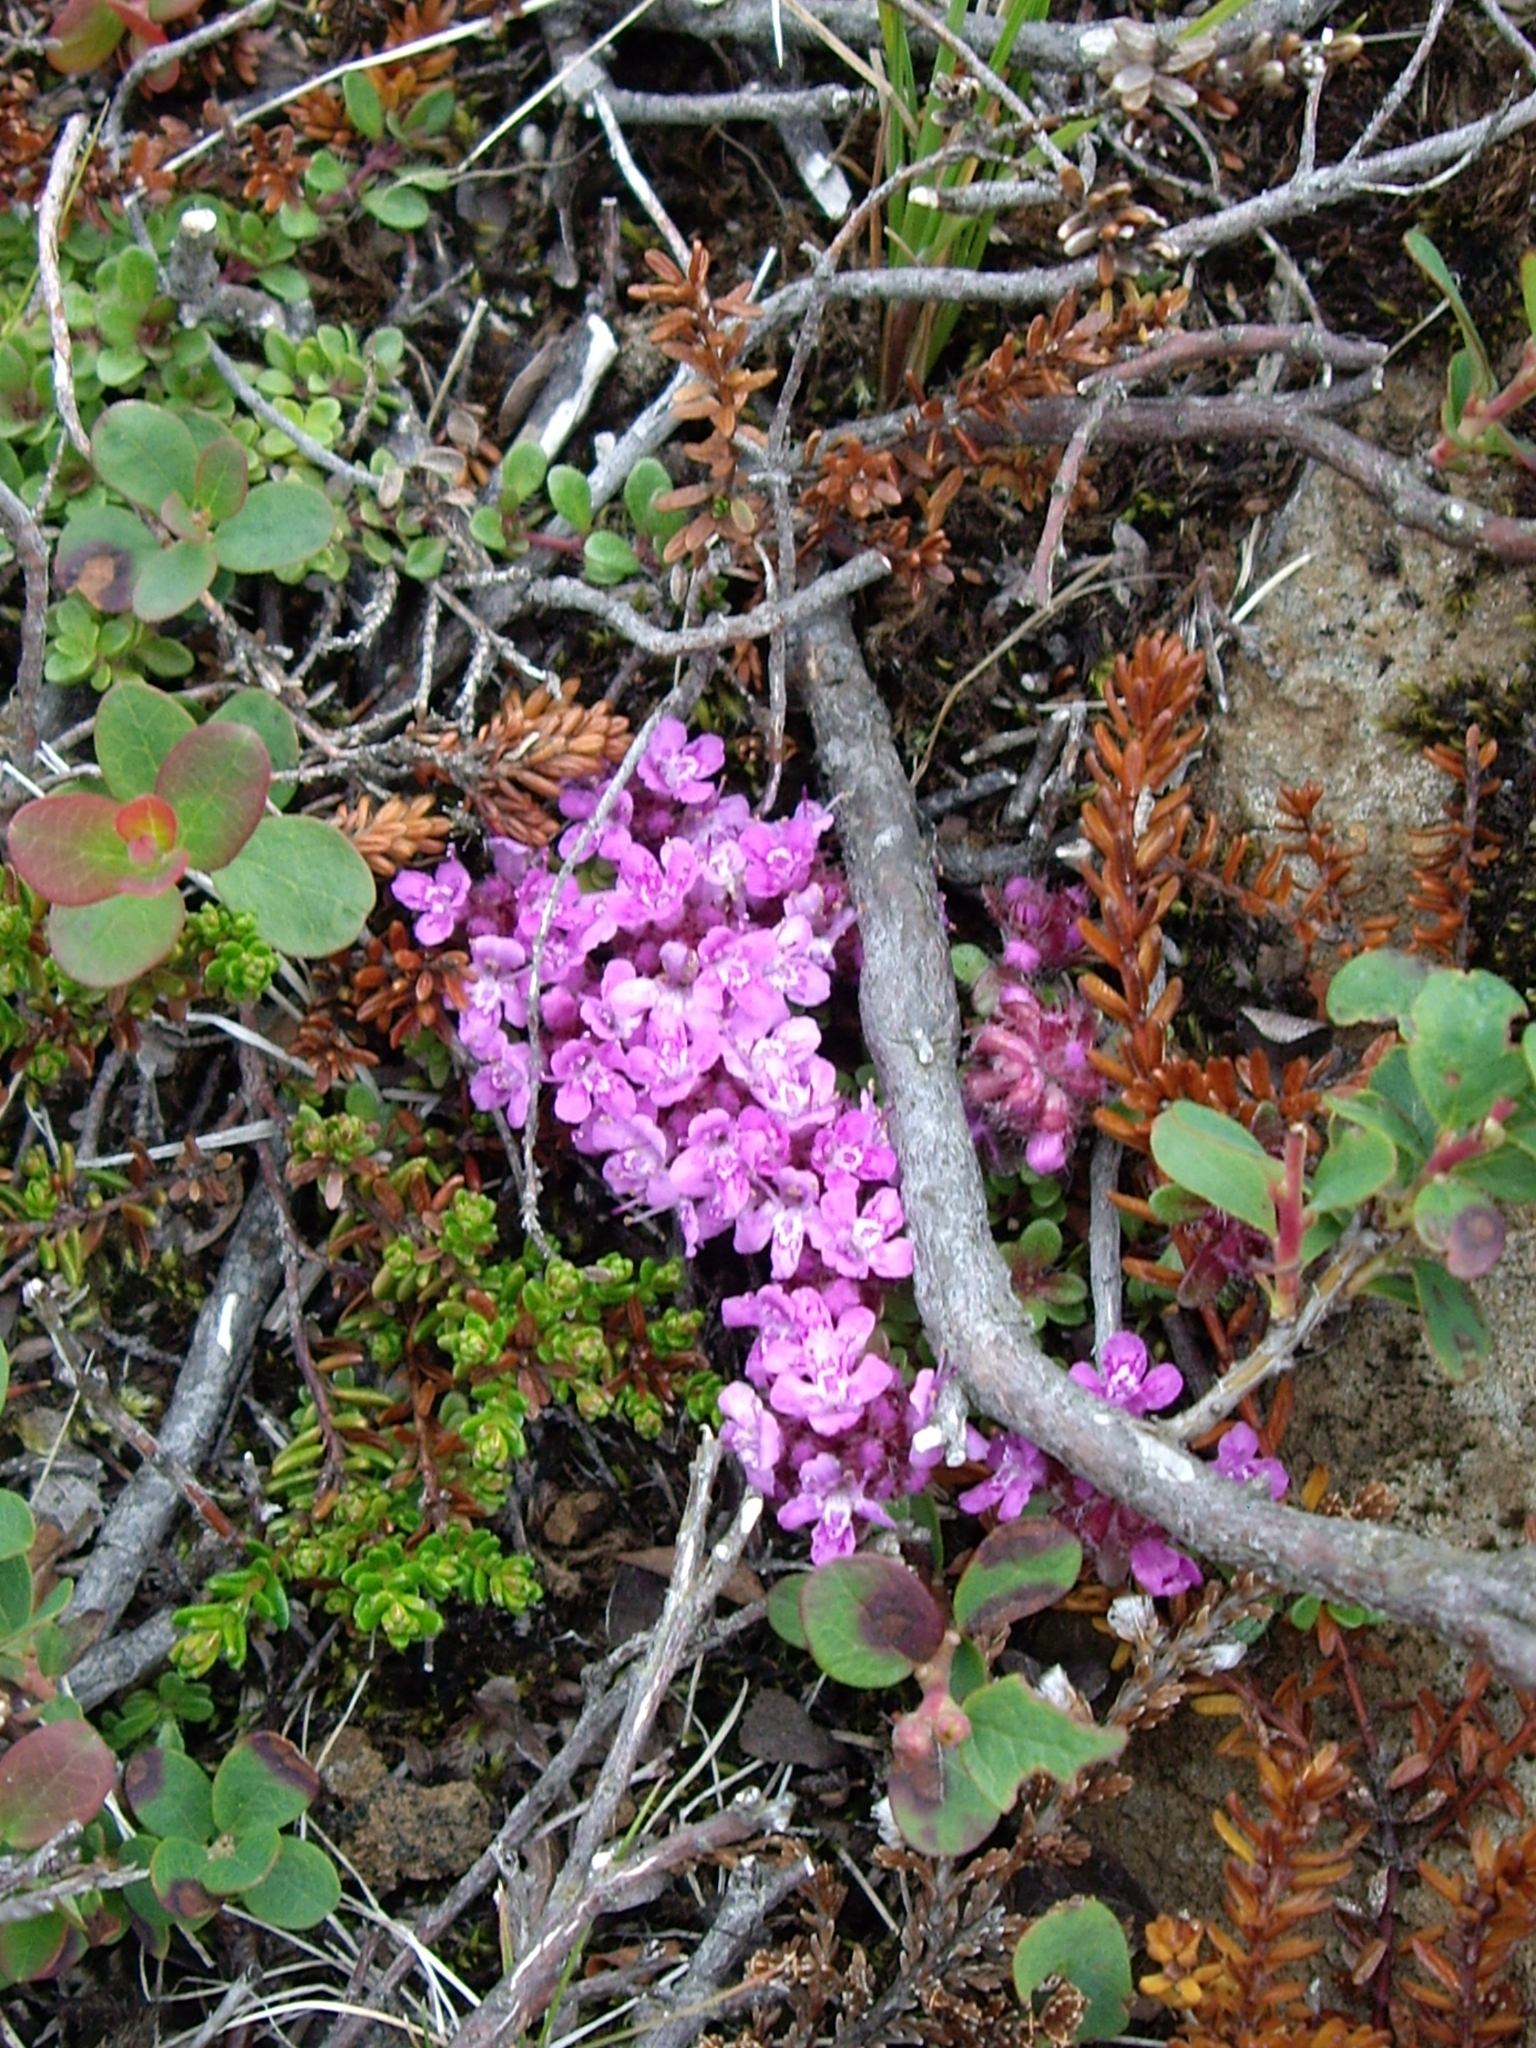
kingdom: Plantae
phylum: Tracheophyta
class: Magnoliopsida
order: Lamiales
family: Lamiaceae
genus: Thymus
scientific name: Thymus praecox
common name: Wild thyme
